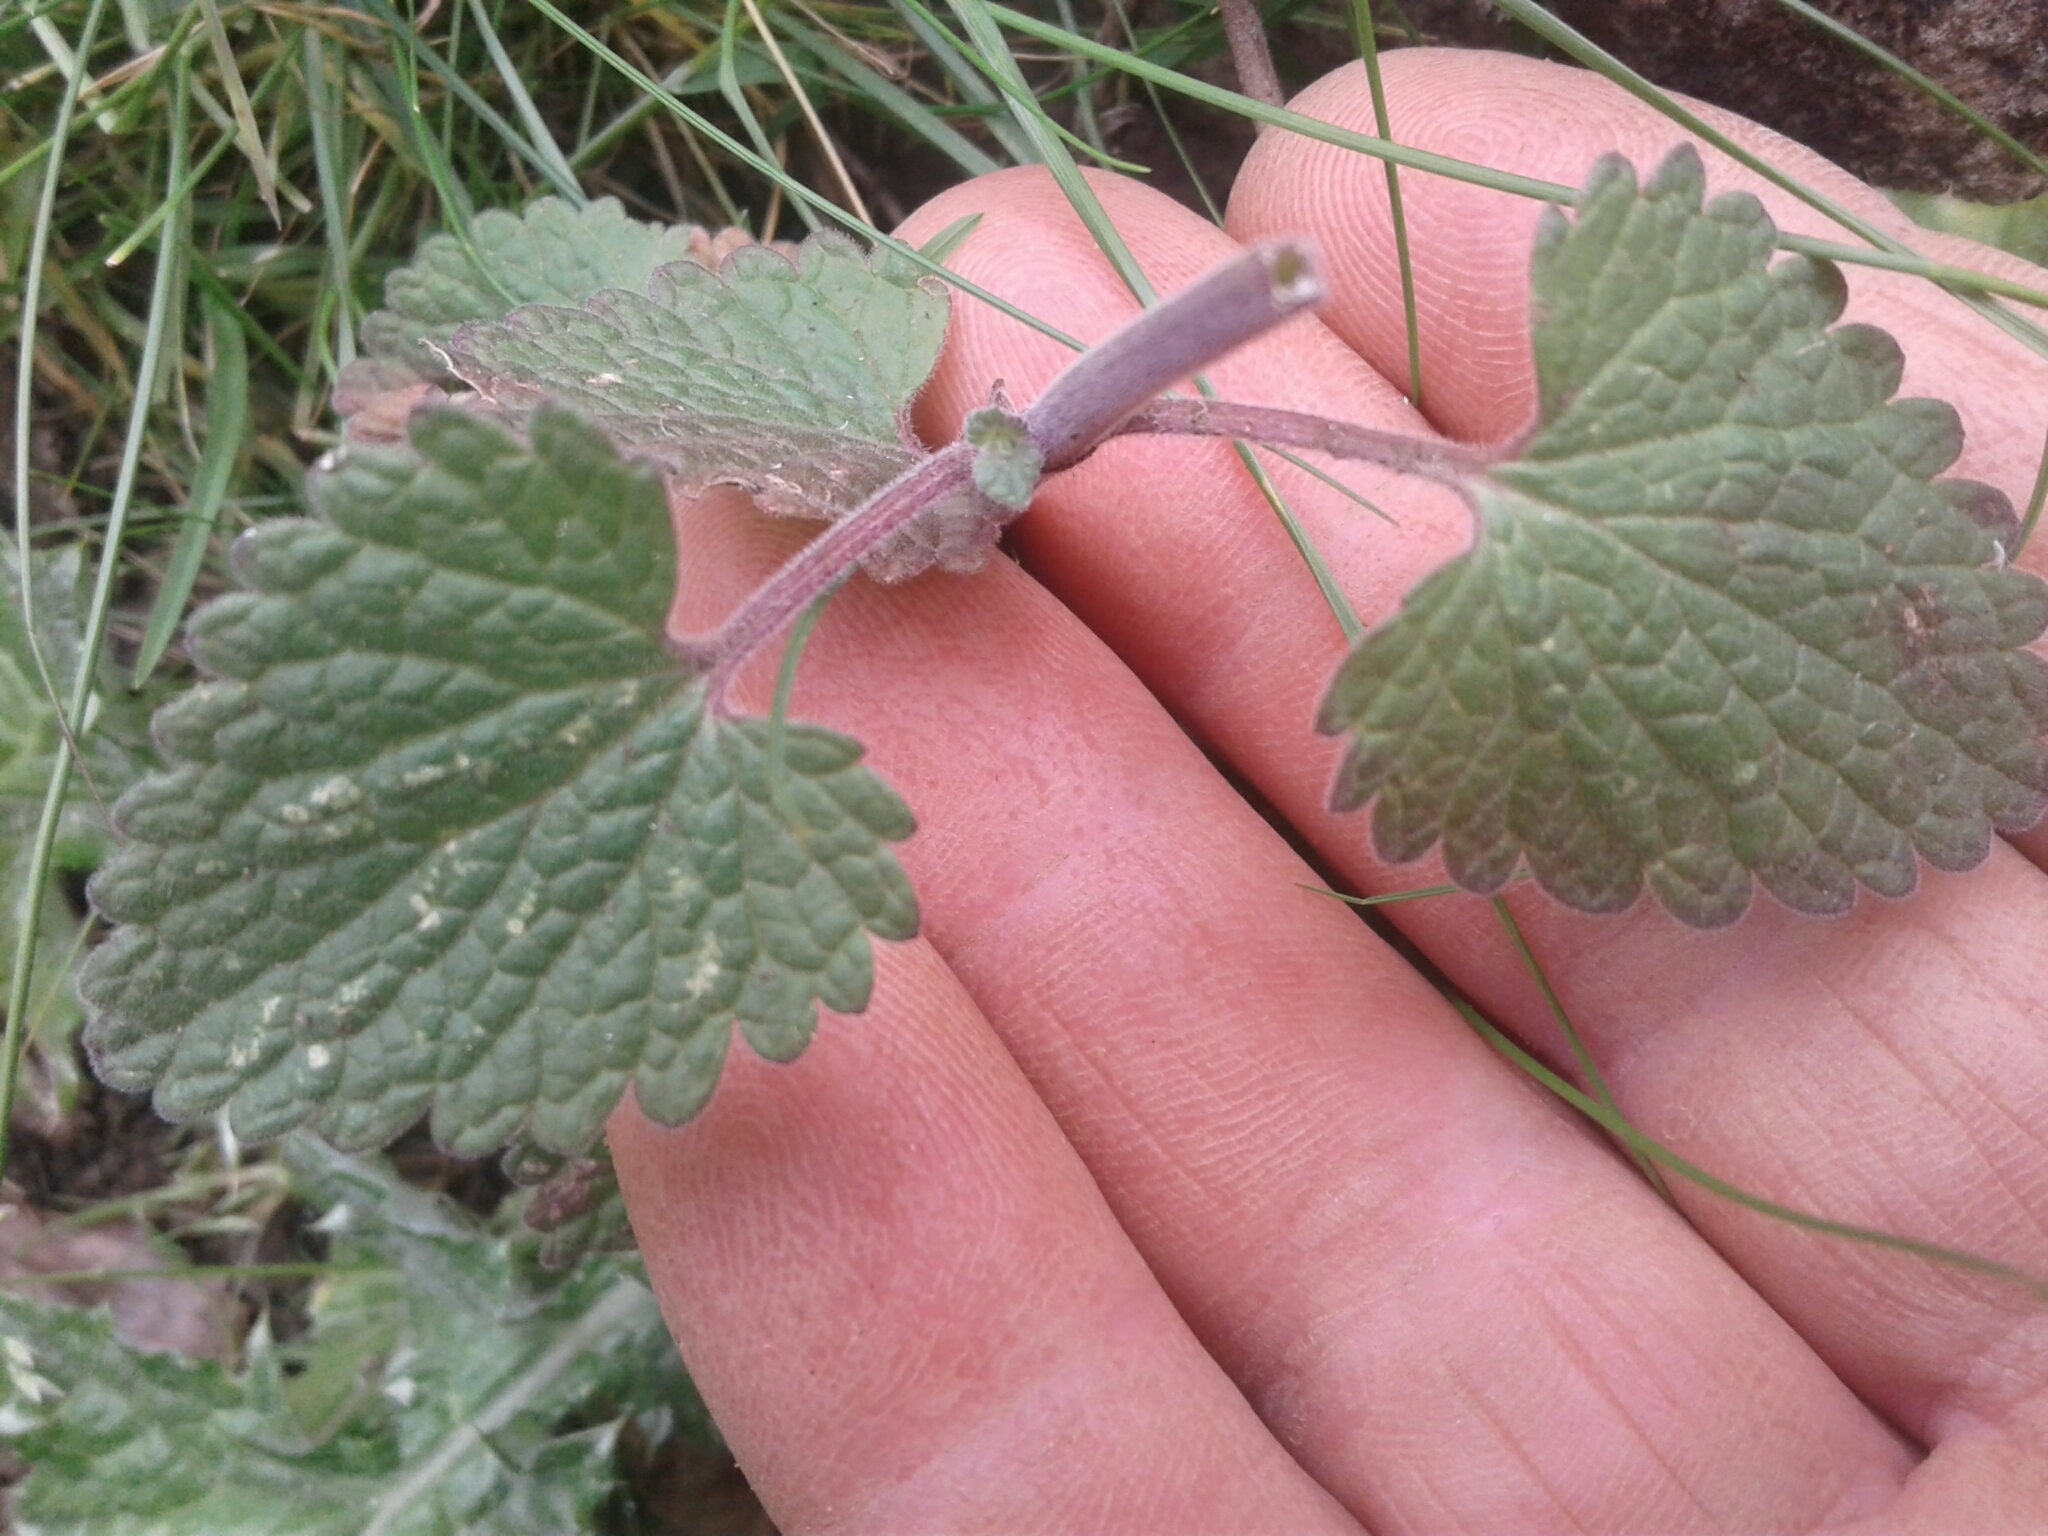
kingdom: Plantae
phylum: Tracheophyta
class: Magnoliopsida
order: Lamiales
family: Lamiaceae
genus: Marrubium
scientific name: Marrubium vulgare
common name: Horehound
